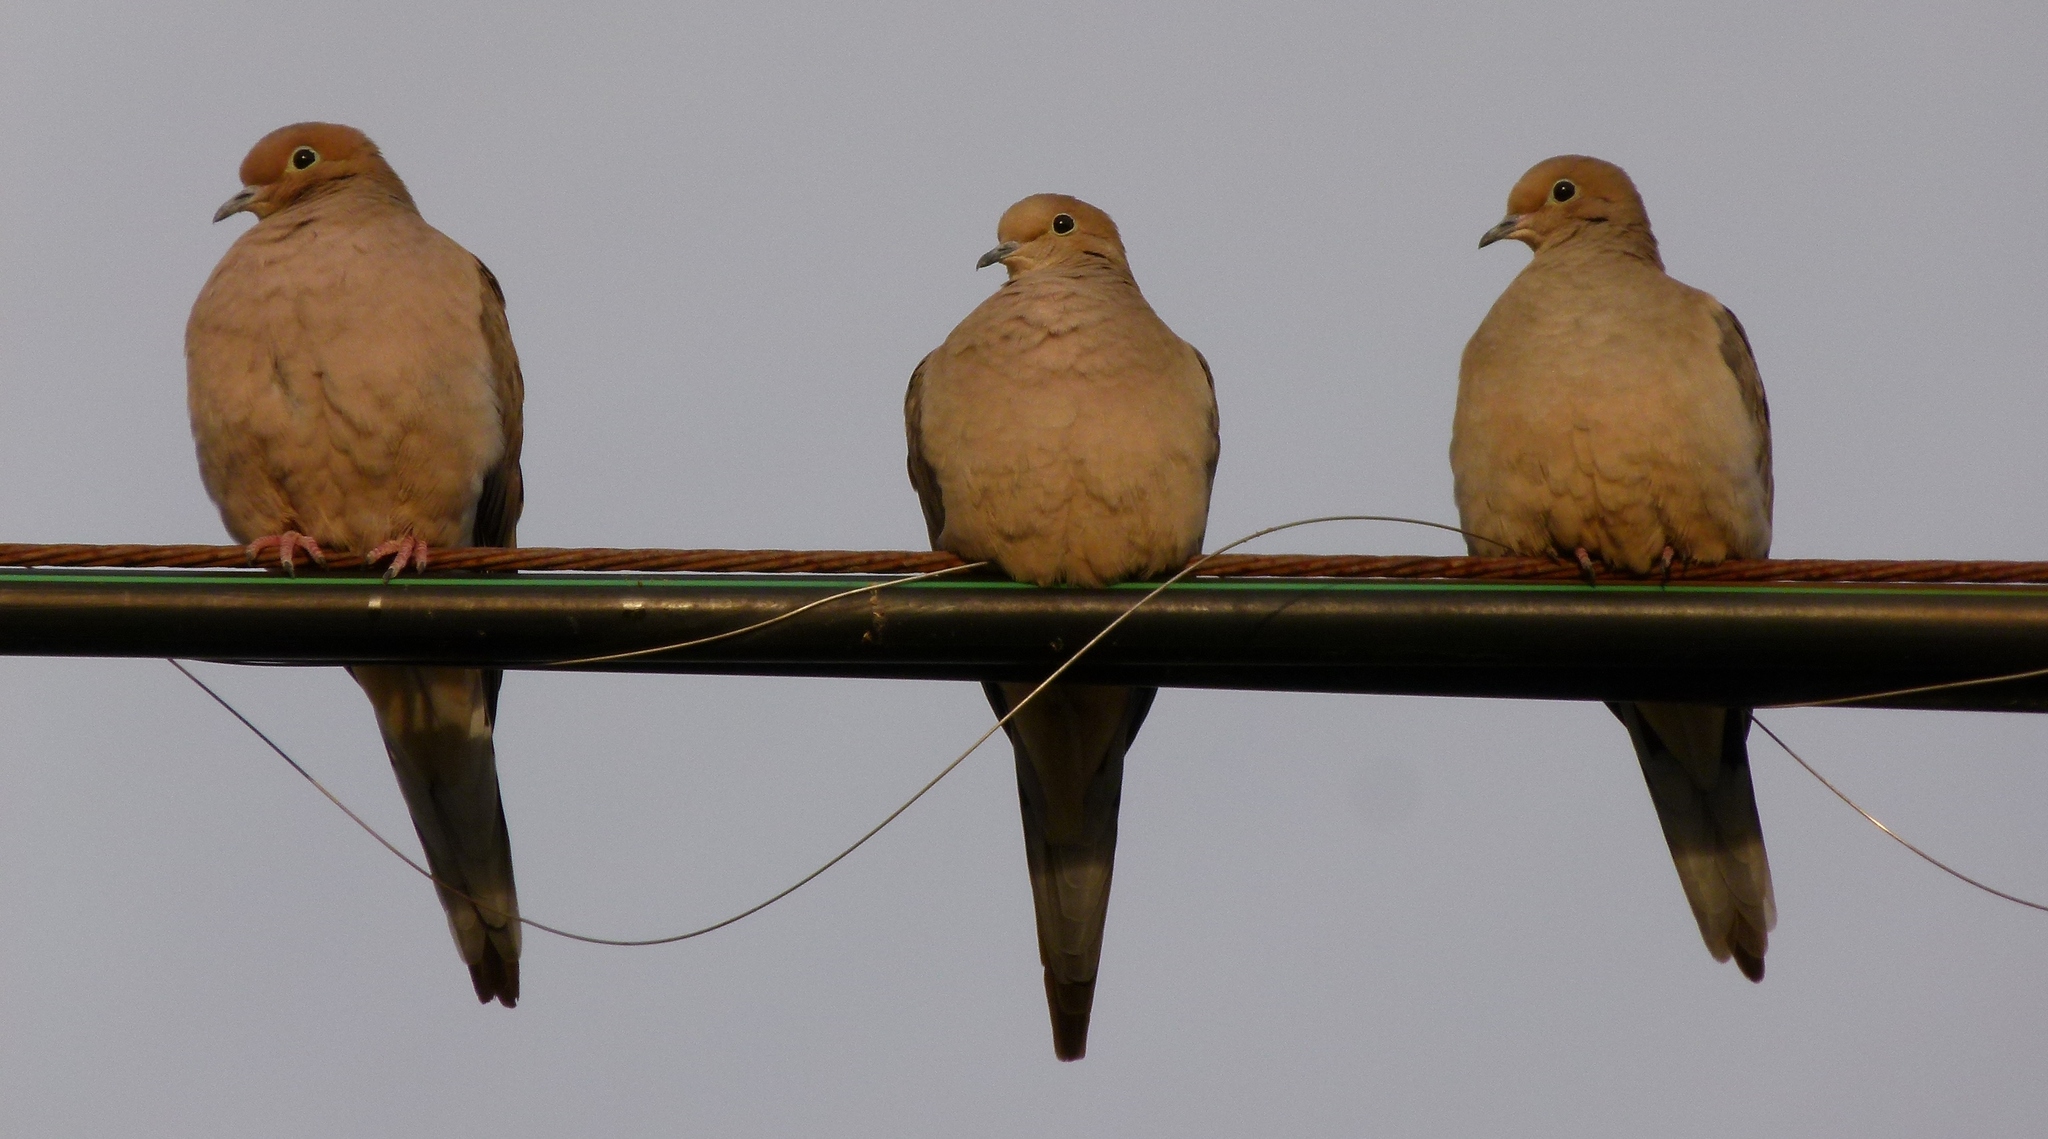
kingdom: Animalia
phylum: Chordata
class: Aves
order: Columbiformes
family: Columbidae
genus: Zenaida
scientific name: Zenaida macroura
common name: Mourning dove
